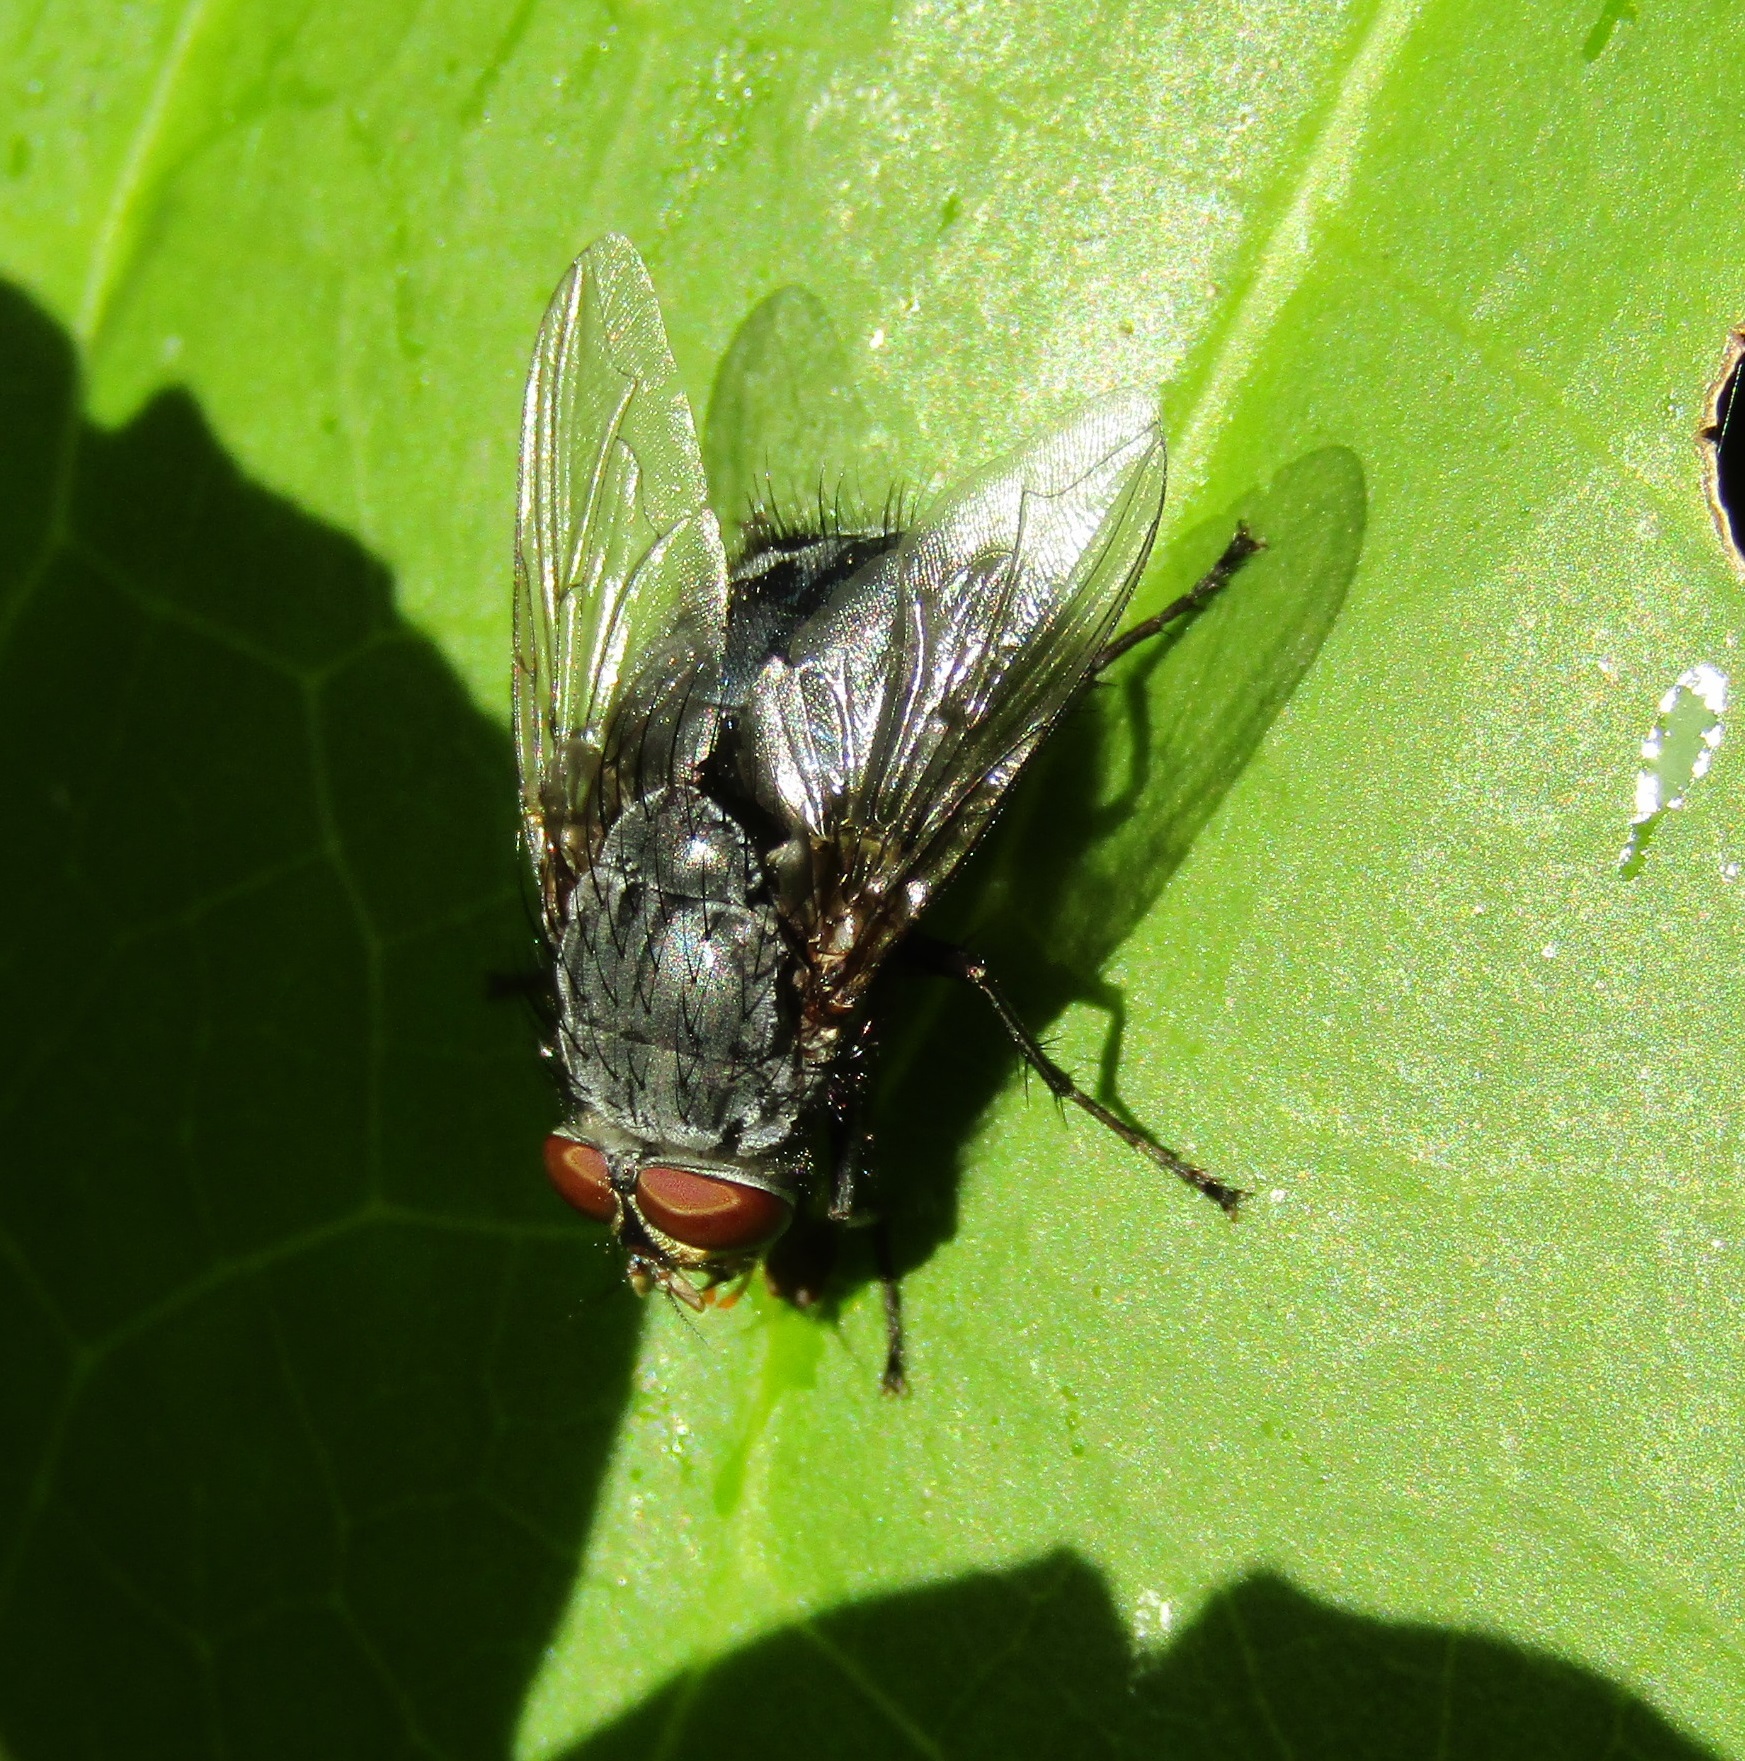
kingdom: Animalia
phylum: Arthropoda
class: Insecta
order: Diptera
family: Calliphoridae
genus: Calliphora
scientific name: Calliphora vicina
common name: Common blow flie
